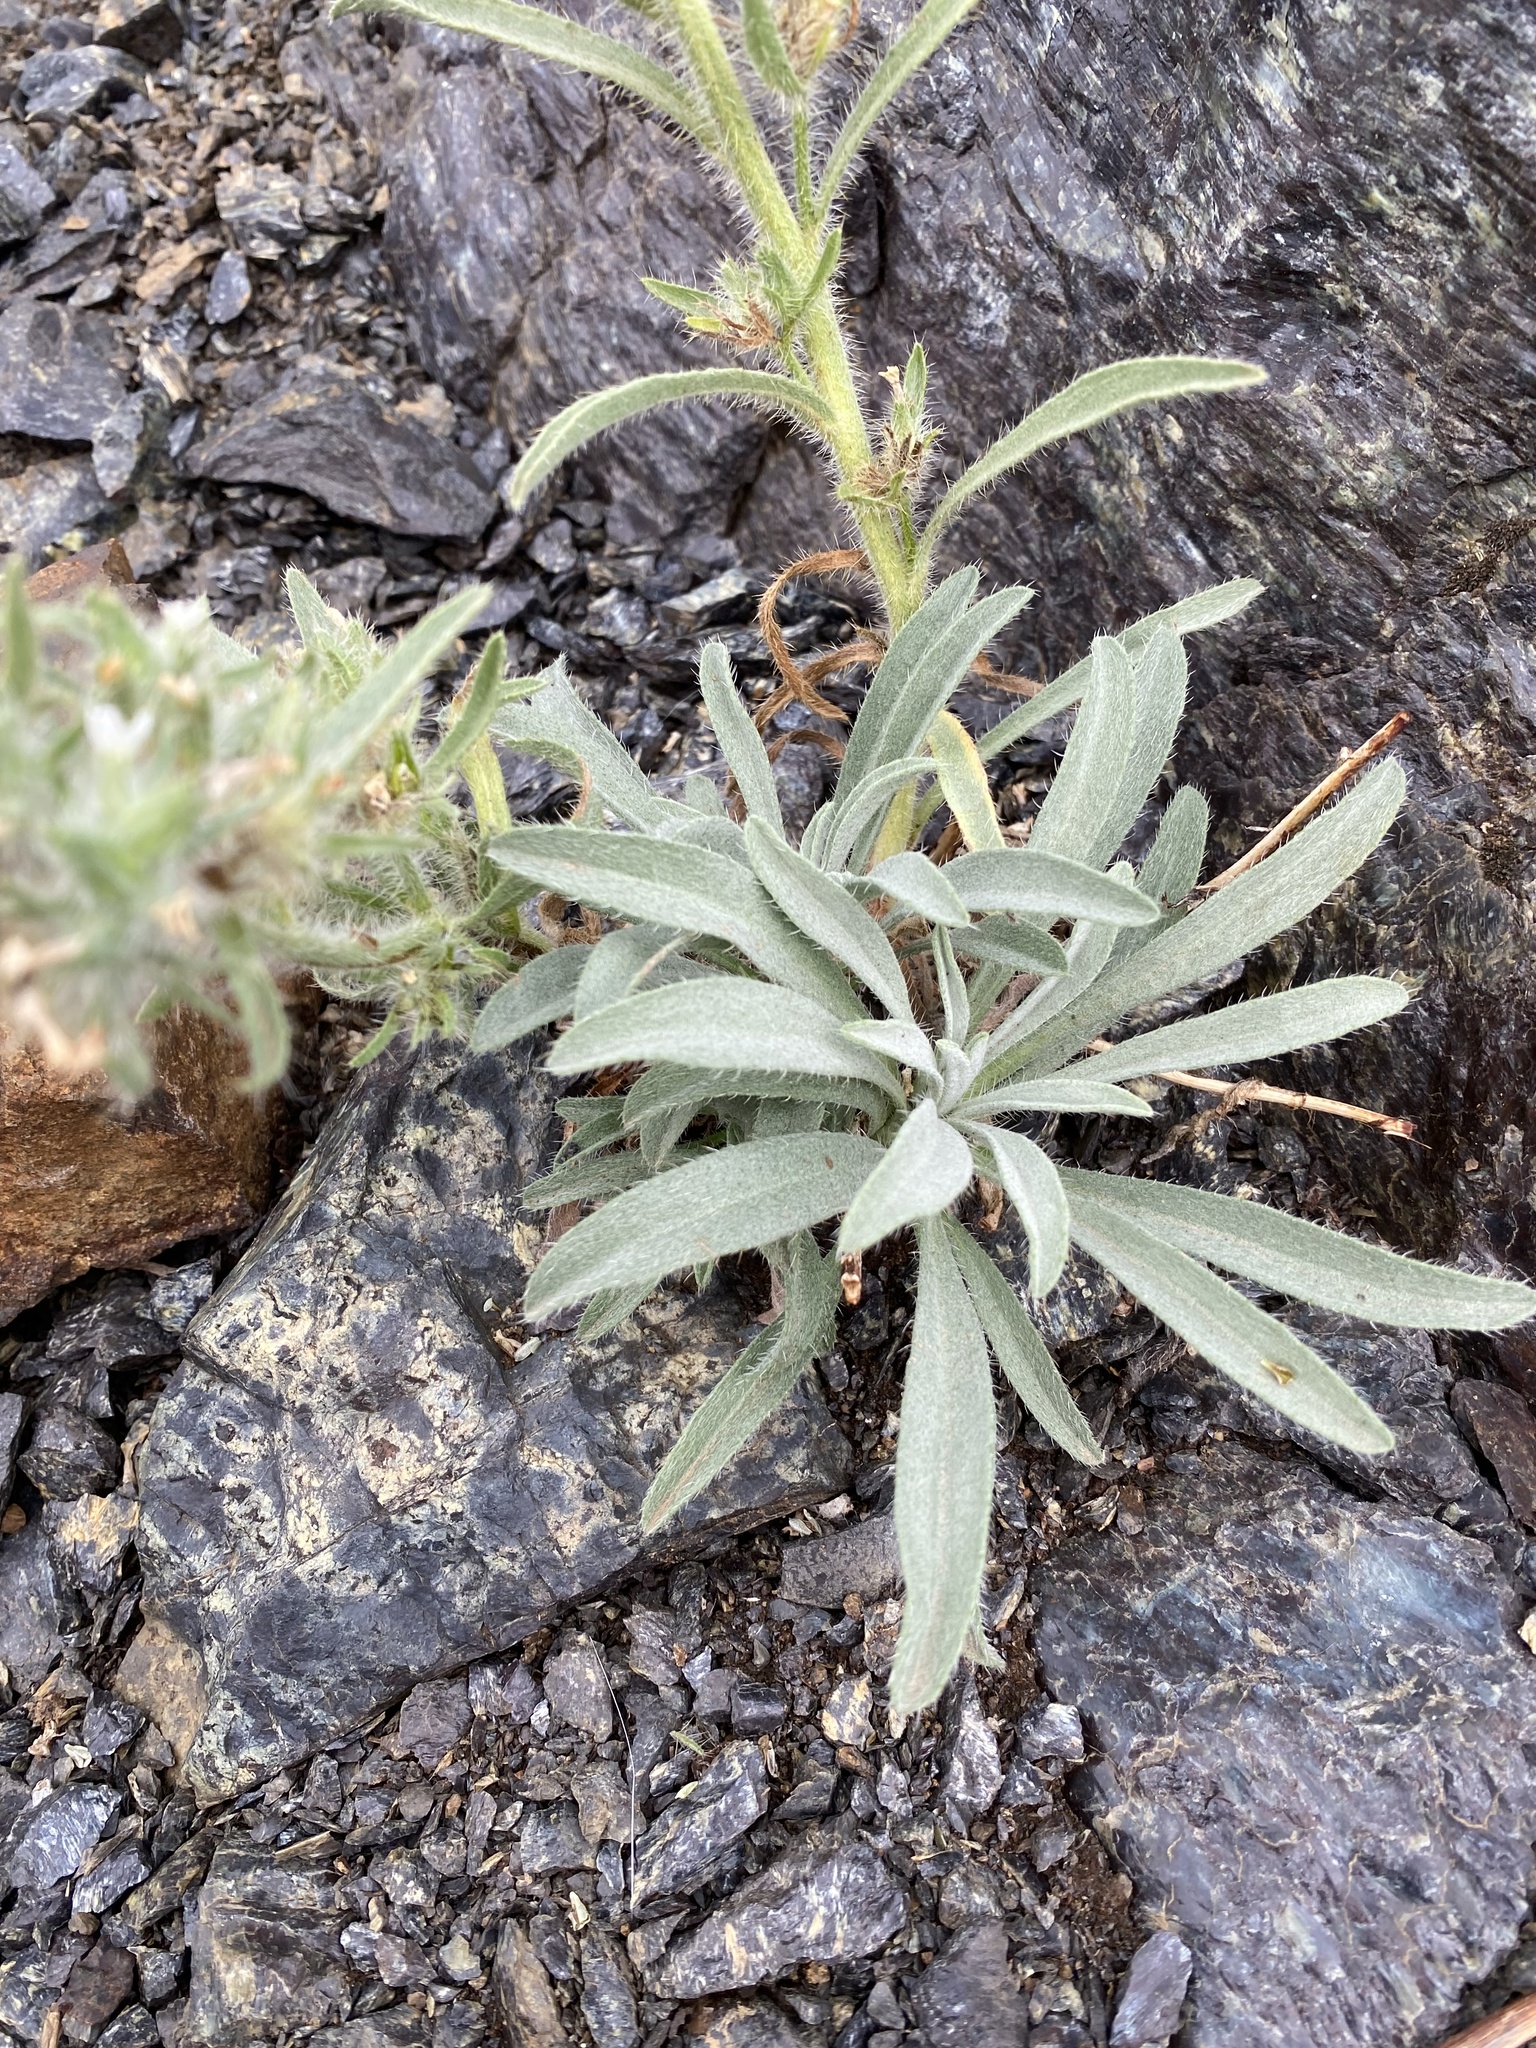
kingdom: Plantae
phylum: Tracheophyta
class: Magnoliopsida
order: Boraginales
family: Boraginaceae
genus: Oreocarya
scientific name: Oreocarya thompsonii
